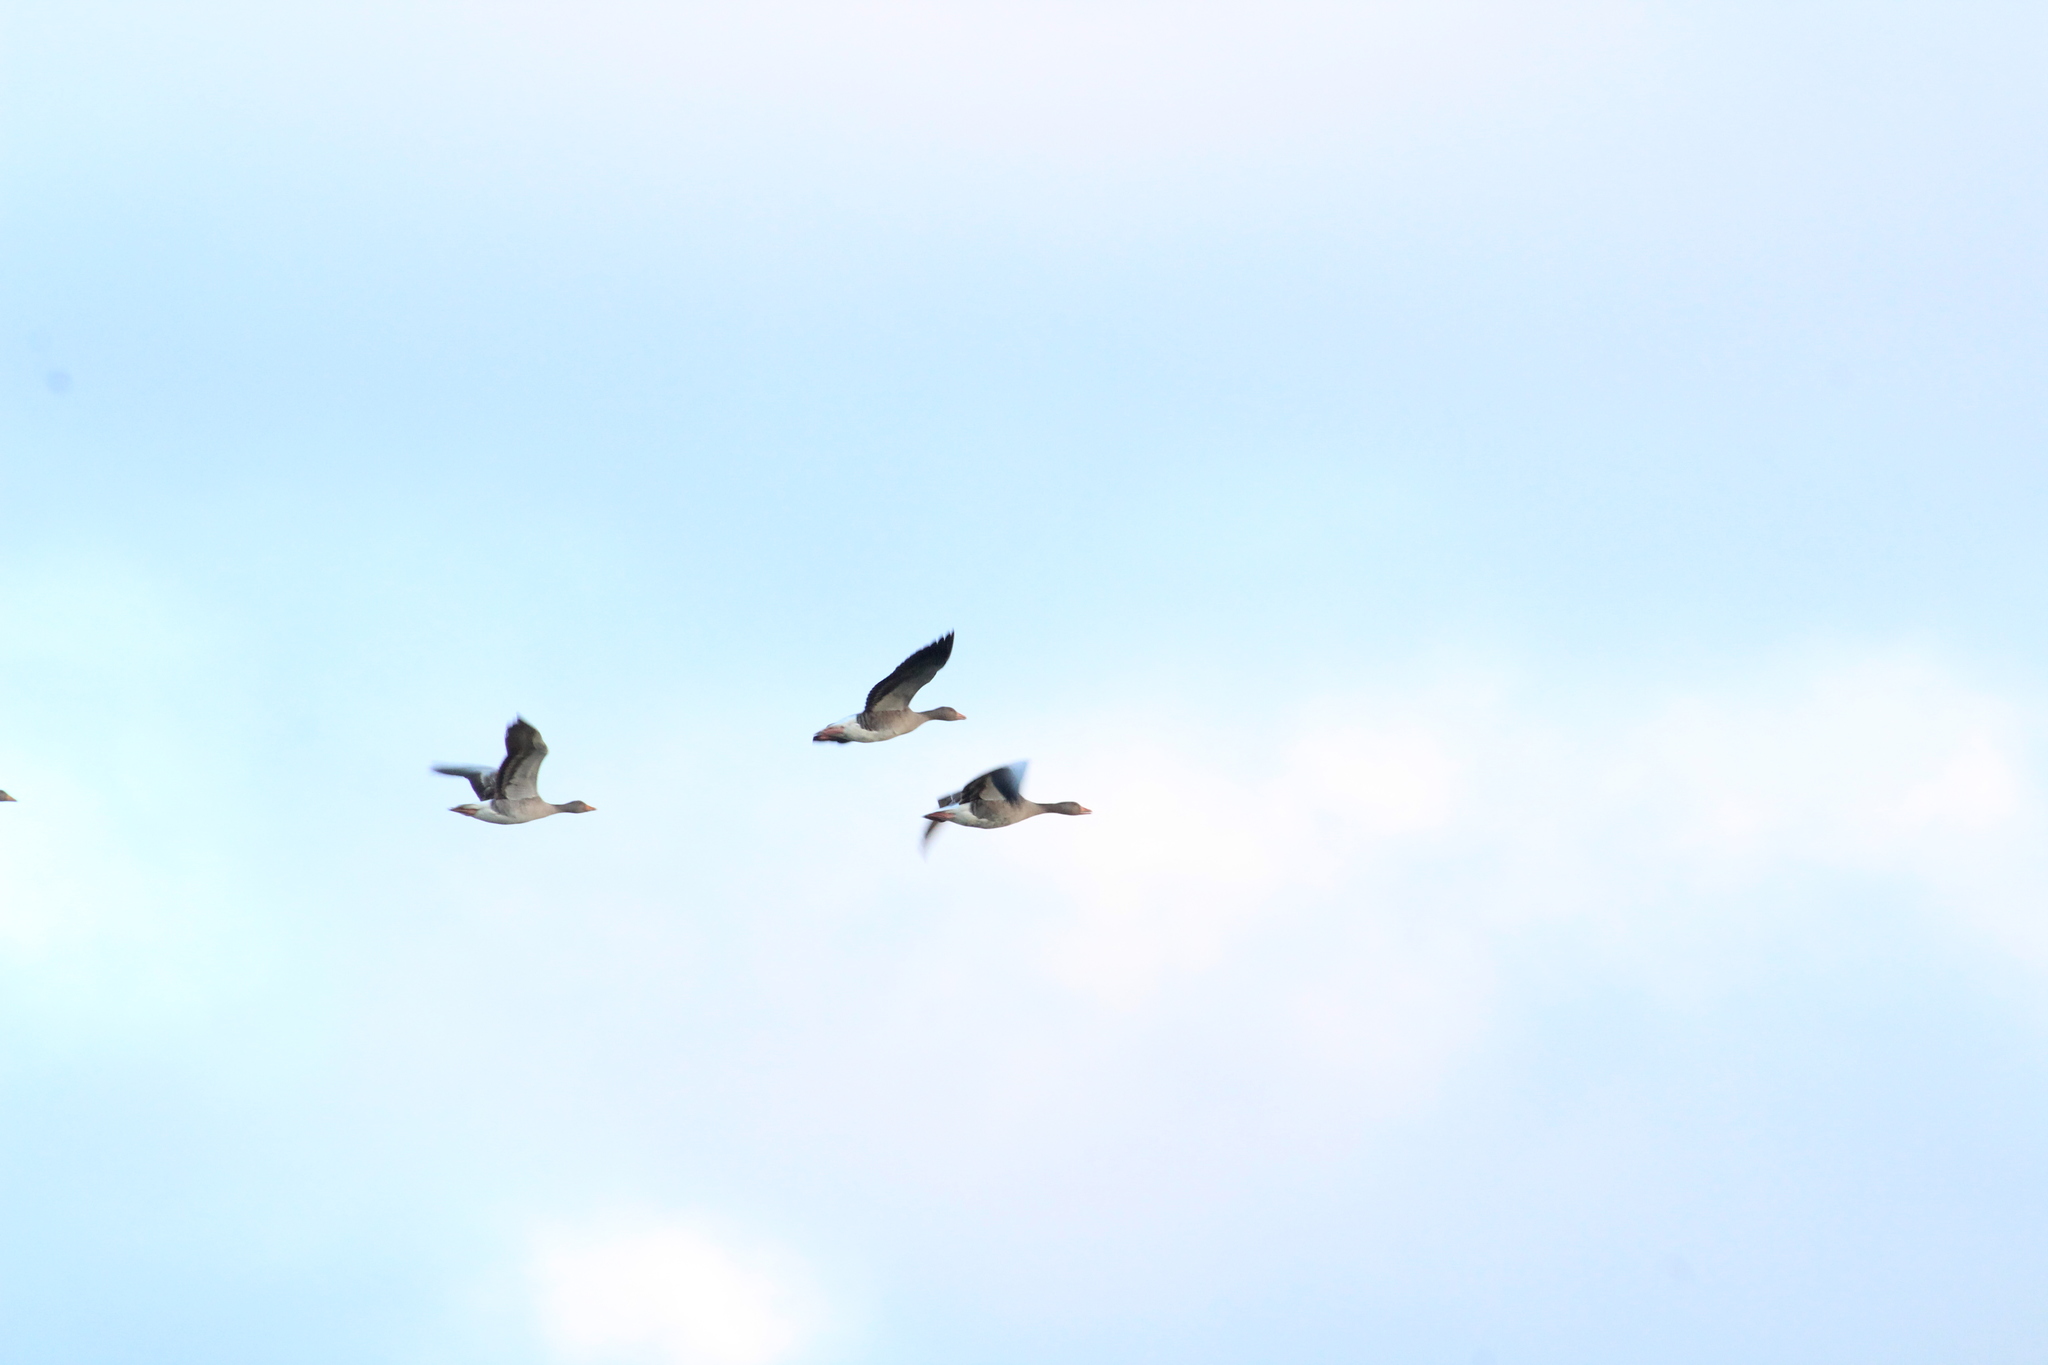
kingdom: Animalia
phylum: Chordata
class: Aves
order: Anseriformes
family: Anatidae
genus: Anser
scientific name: Anser anser
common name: Greylag goose
